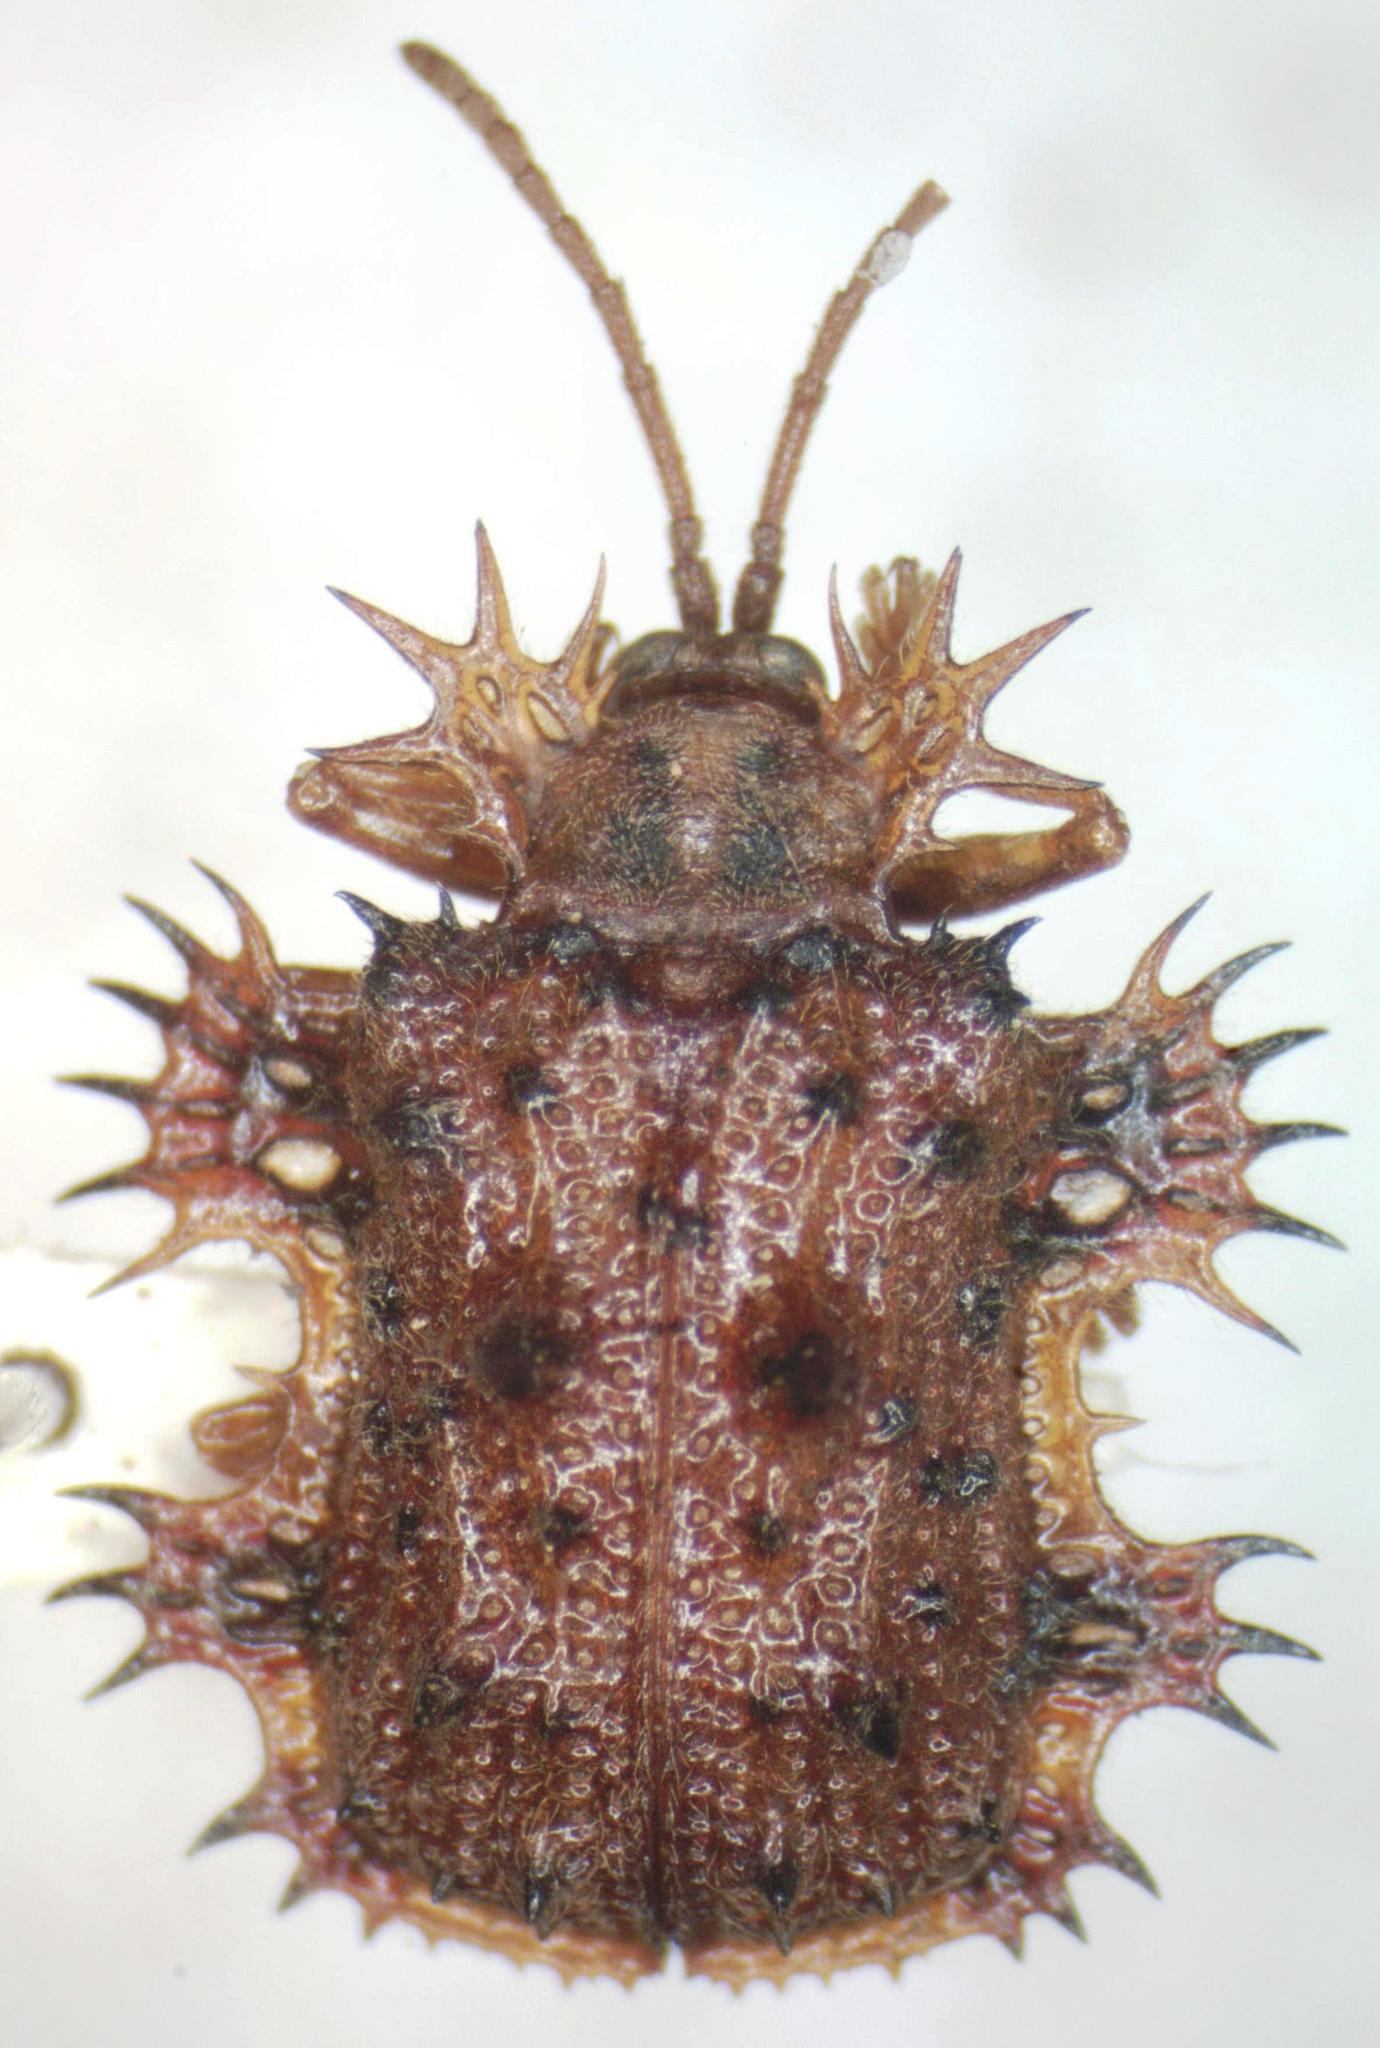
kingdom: Animalia
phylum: Arthropoda
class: Insecta
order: Coleoptera
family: Chrysomelidae
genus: Platypria
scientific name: Platypria echidna
